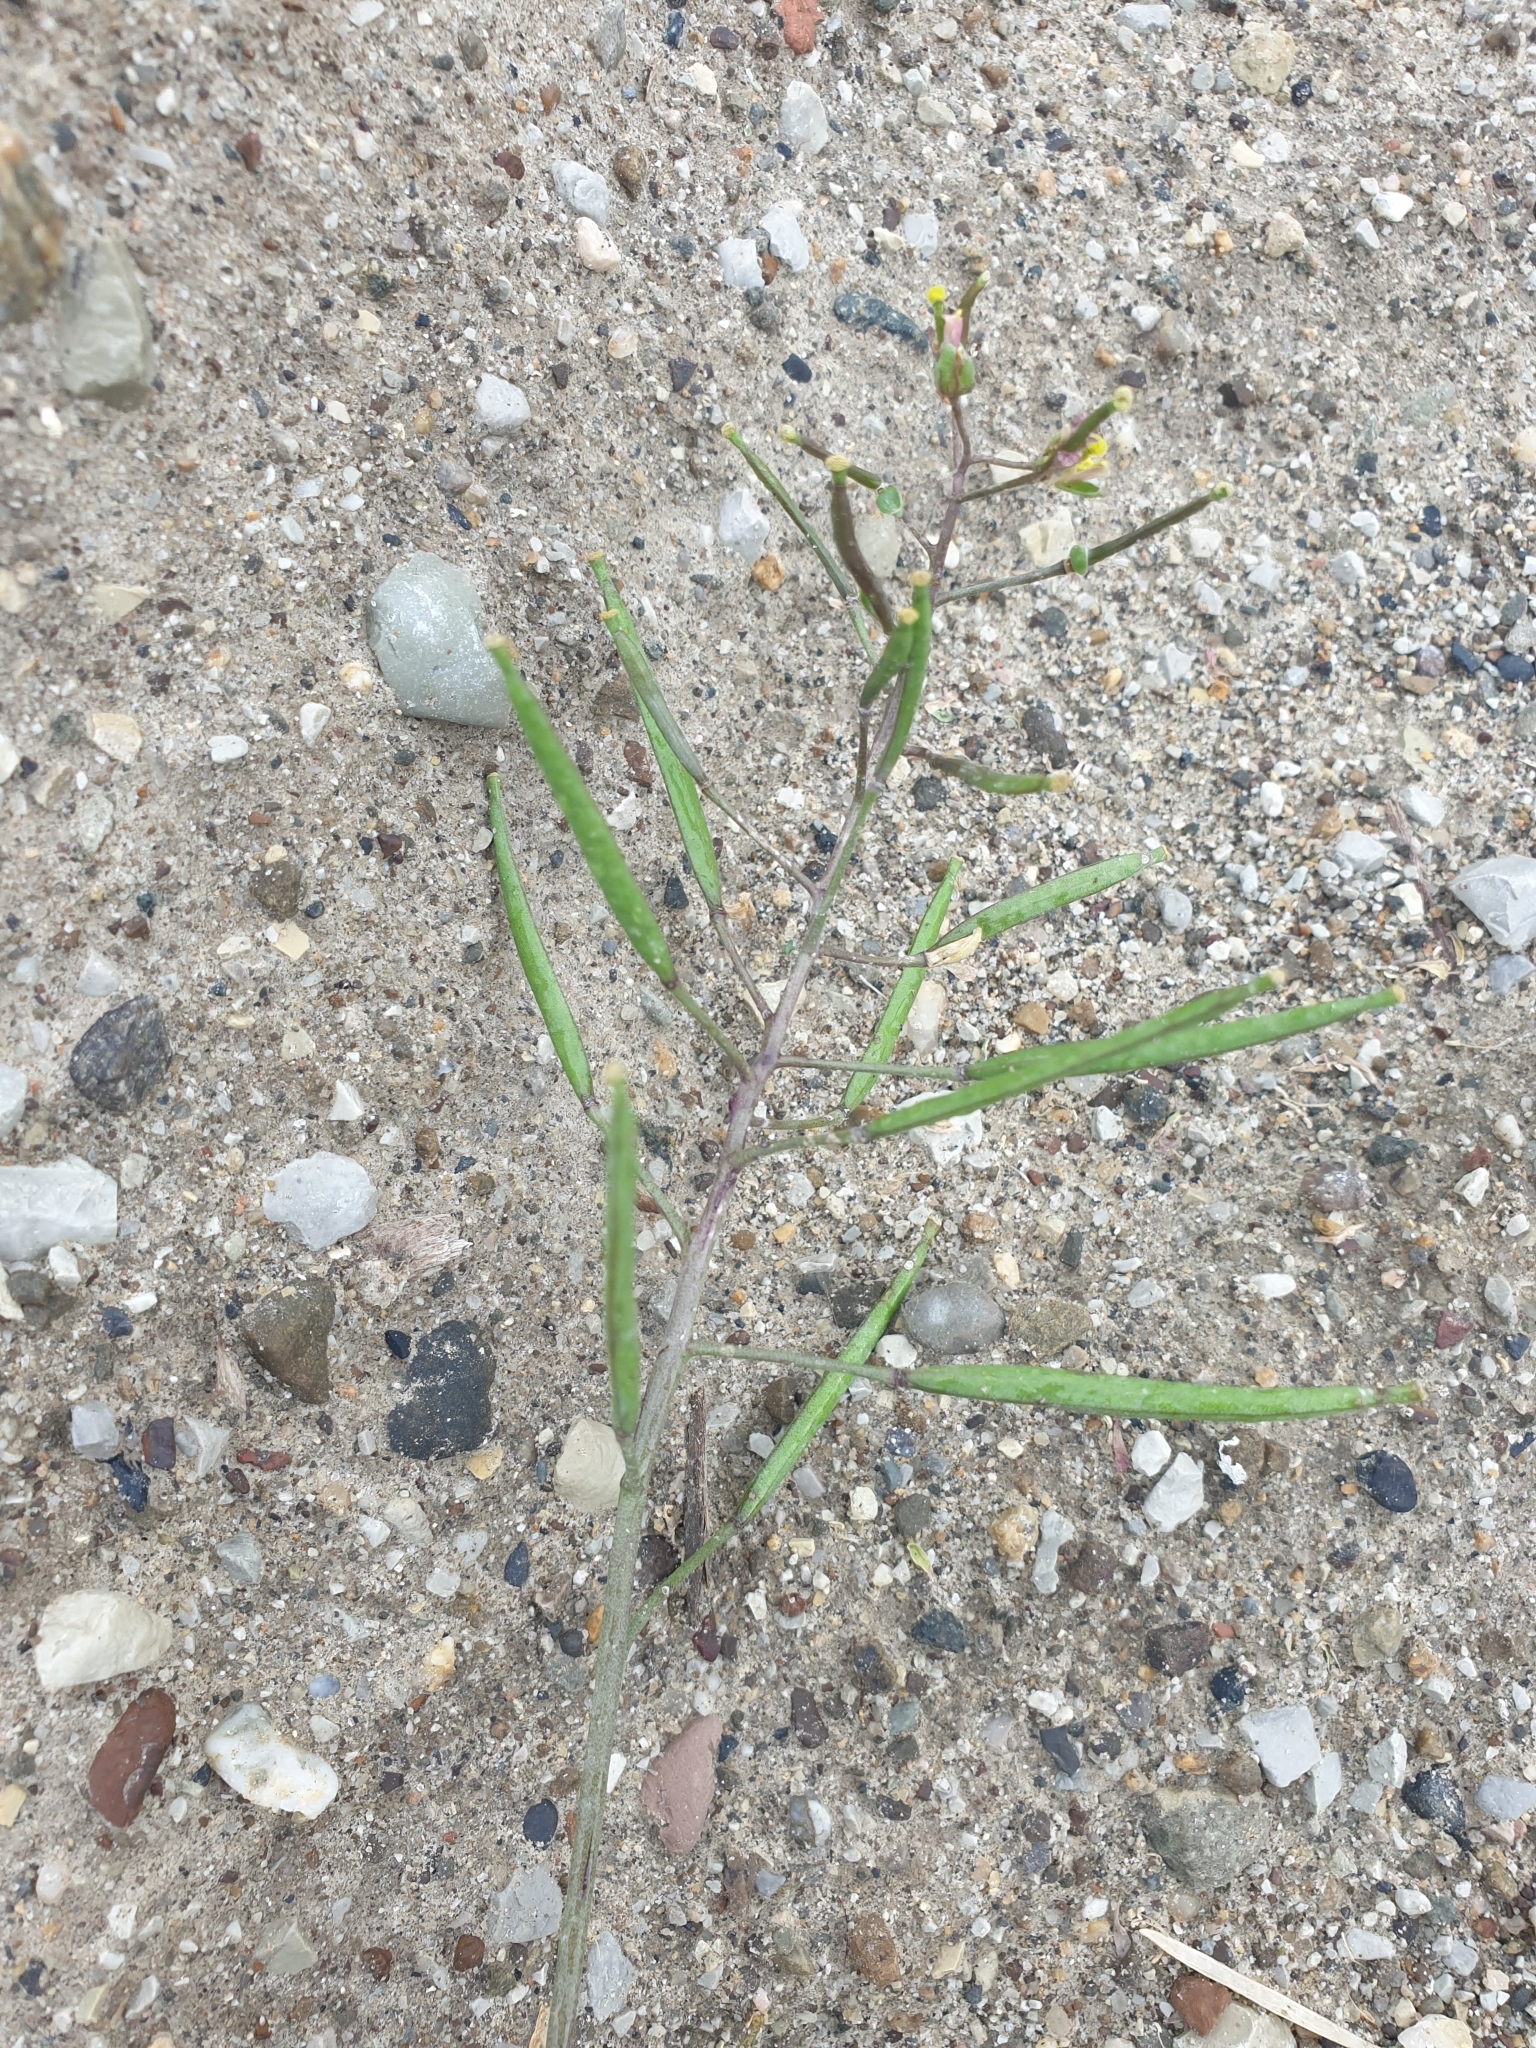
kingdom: Plantae
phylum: Tracheophyta
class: Magnoliopsida
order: Brassicales
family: Brassicaceae
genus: Diplotaxis
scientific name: Diplotaxis muralis
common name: Annual wall-rocket
